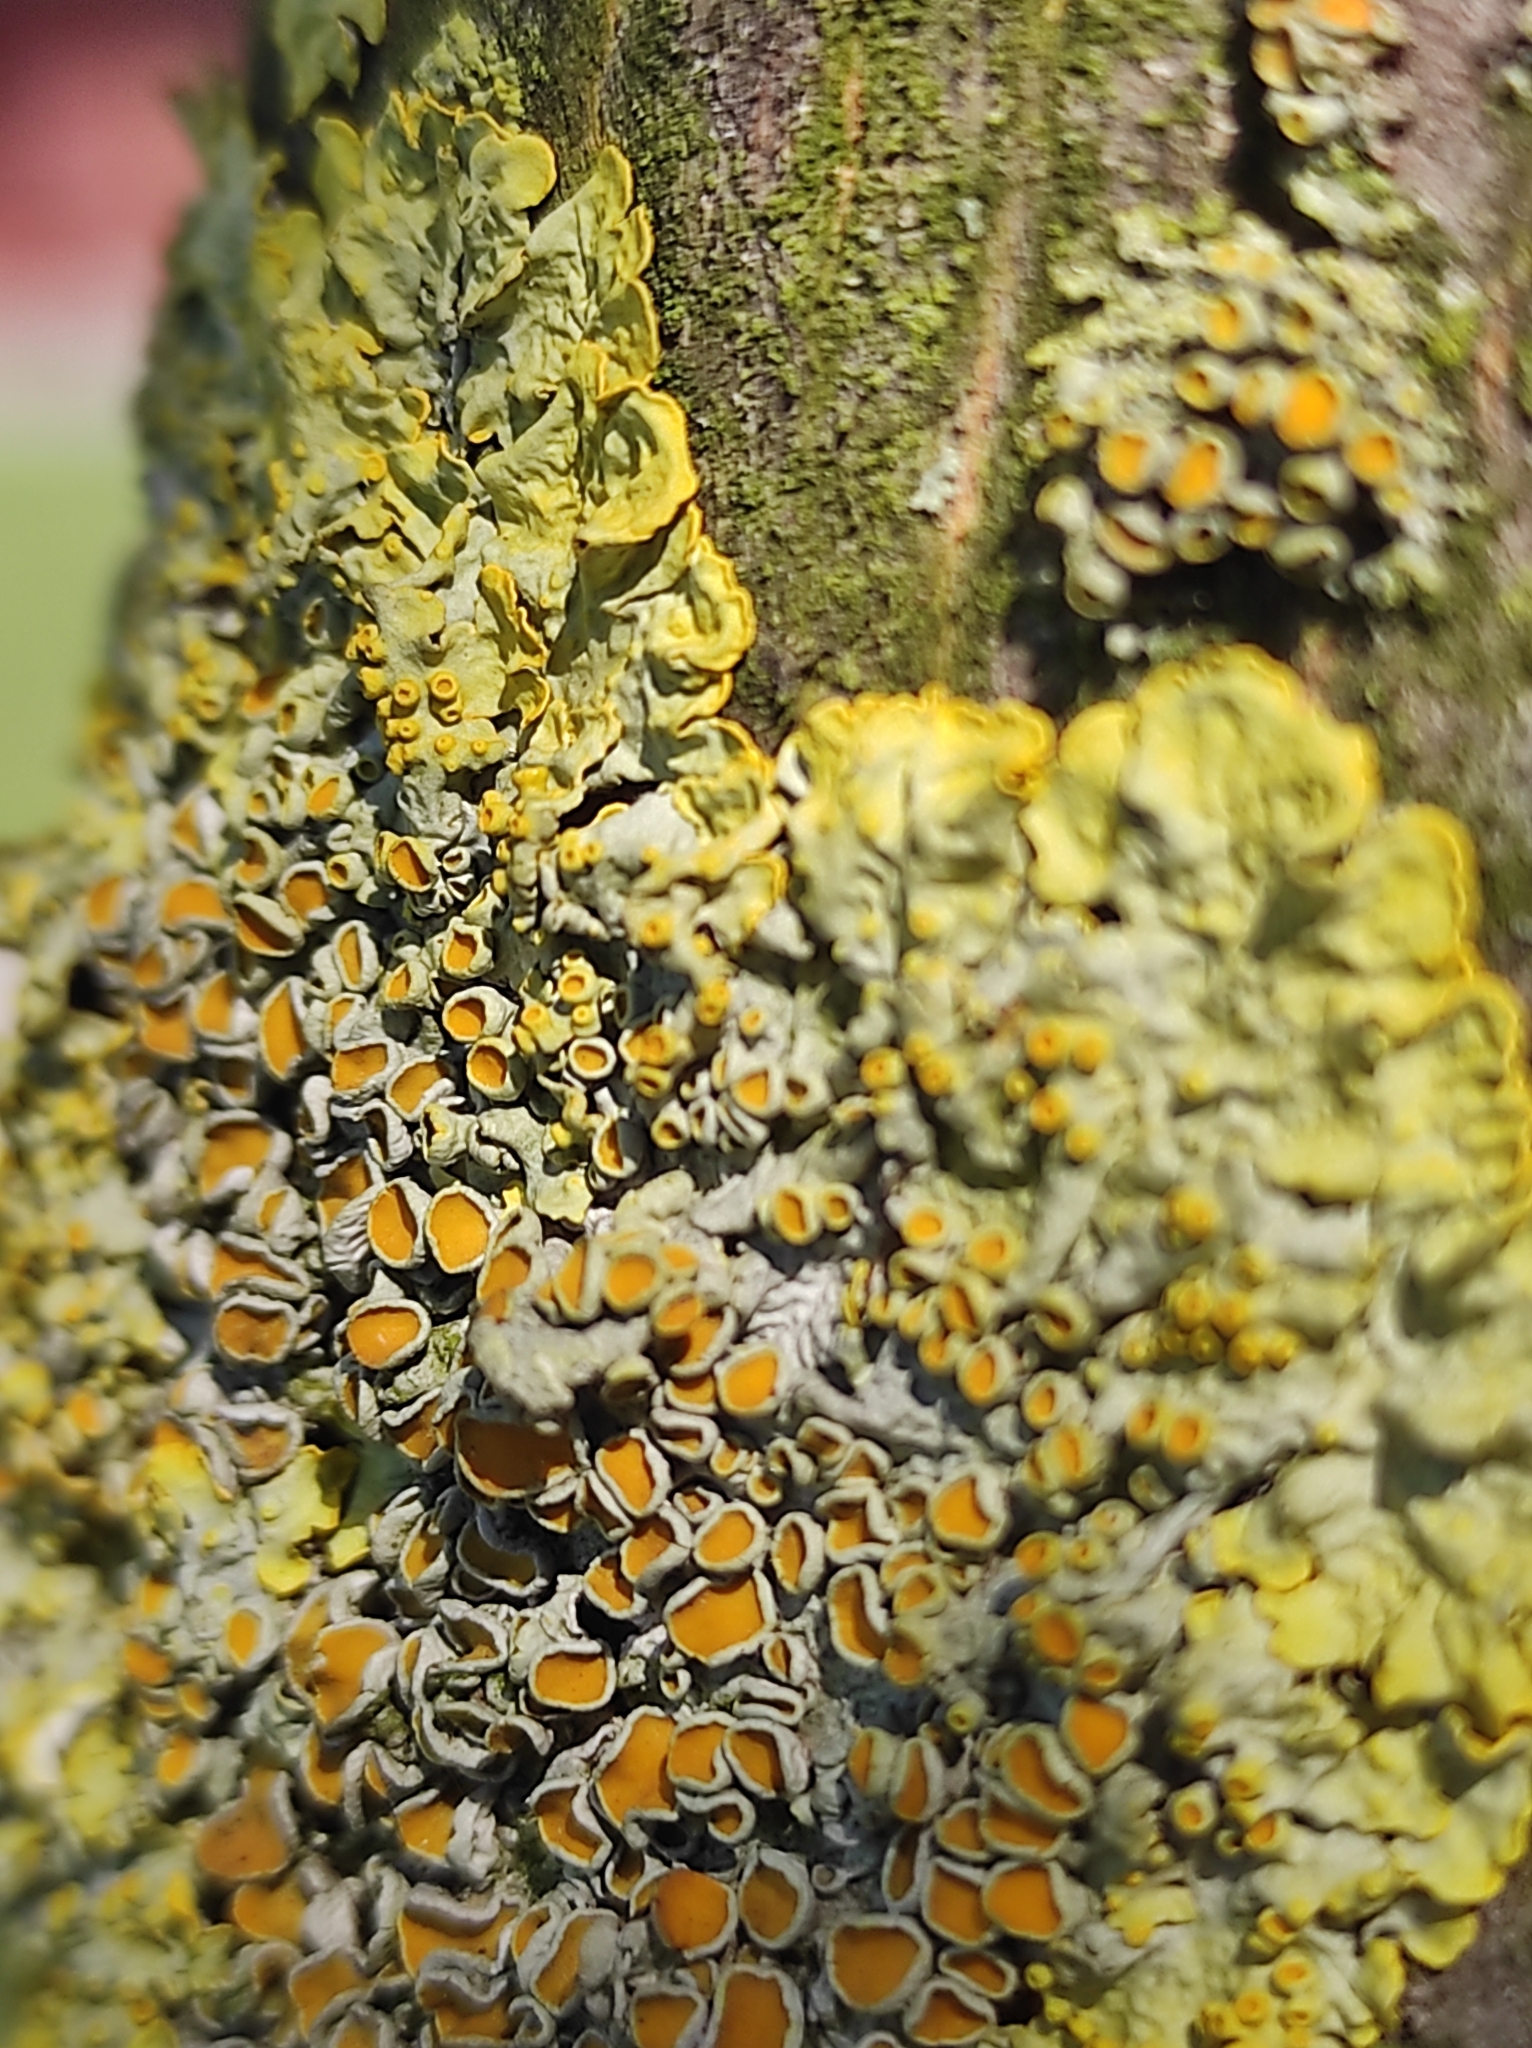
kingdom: Fungi
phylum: Ascomycota
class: Lecanoromycetes
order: Teloschistales
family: Teloschistaceae
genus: Xanthoria
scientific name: Xanthoria parietina
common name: Common orange lichen
